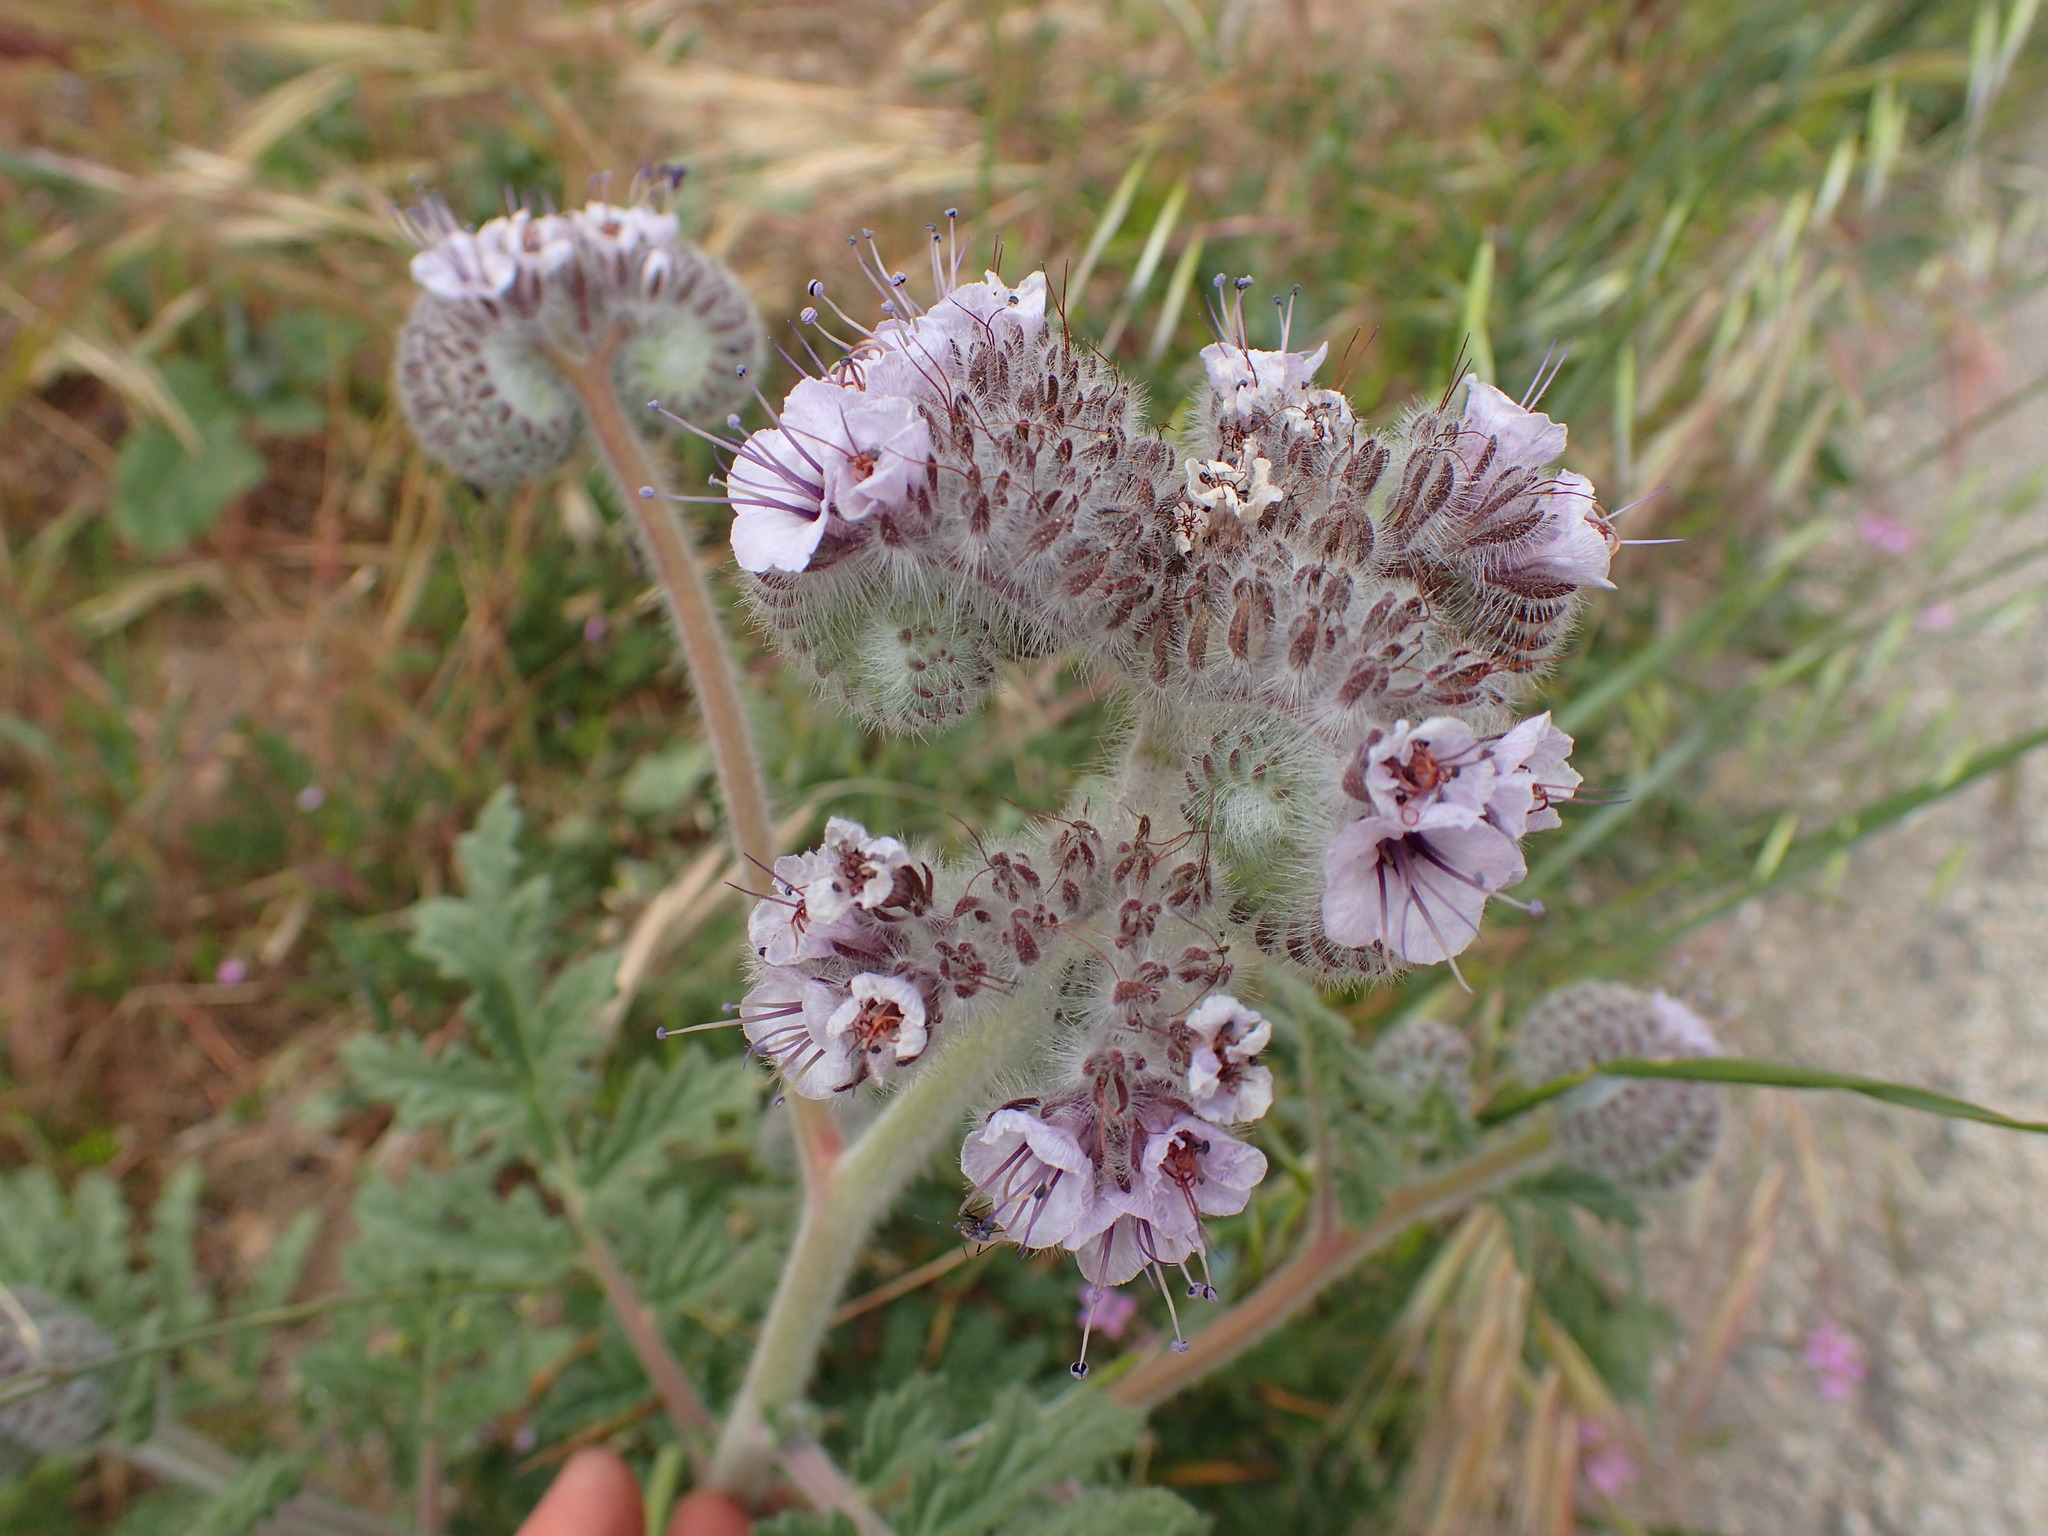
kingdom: Plantae
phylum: Tracheophyta
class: Magnoliopsida
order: Boraginales
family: Hydrophyllaceae
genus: Phacelia
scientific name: Phacelia hubbyi
